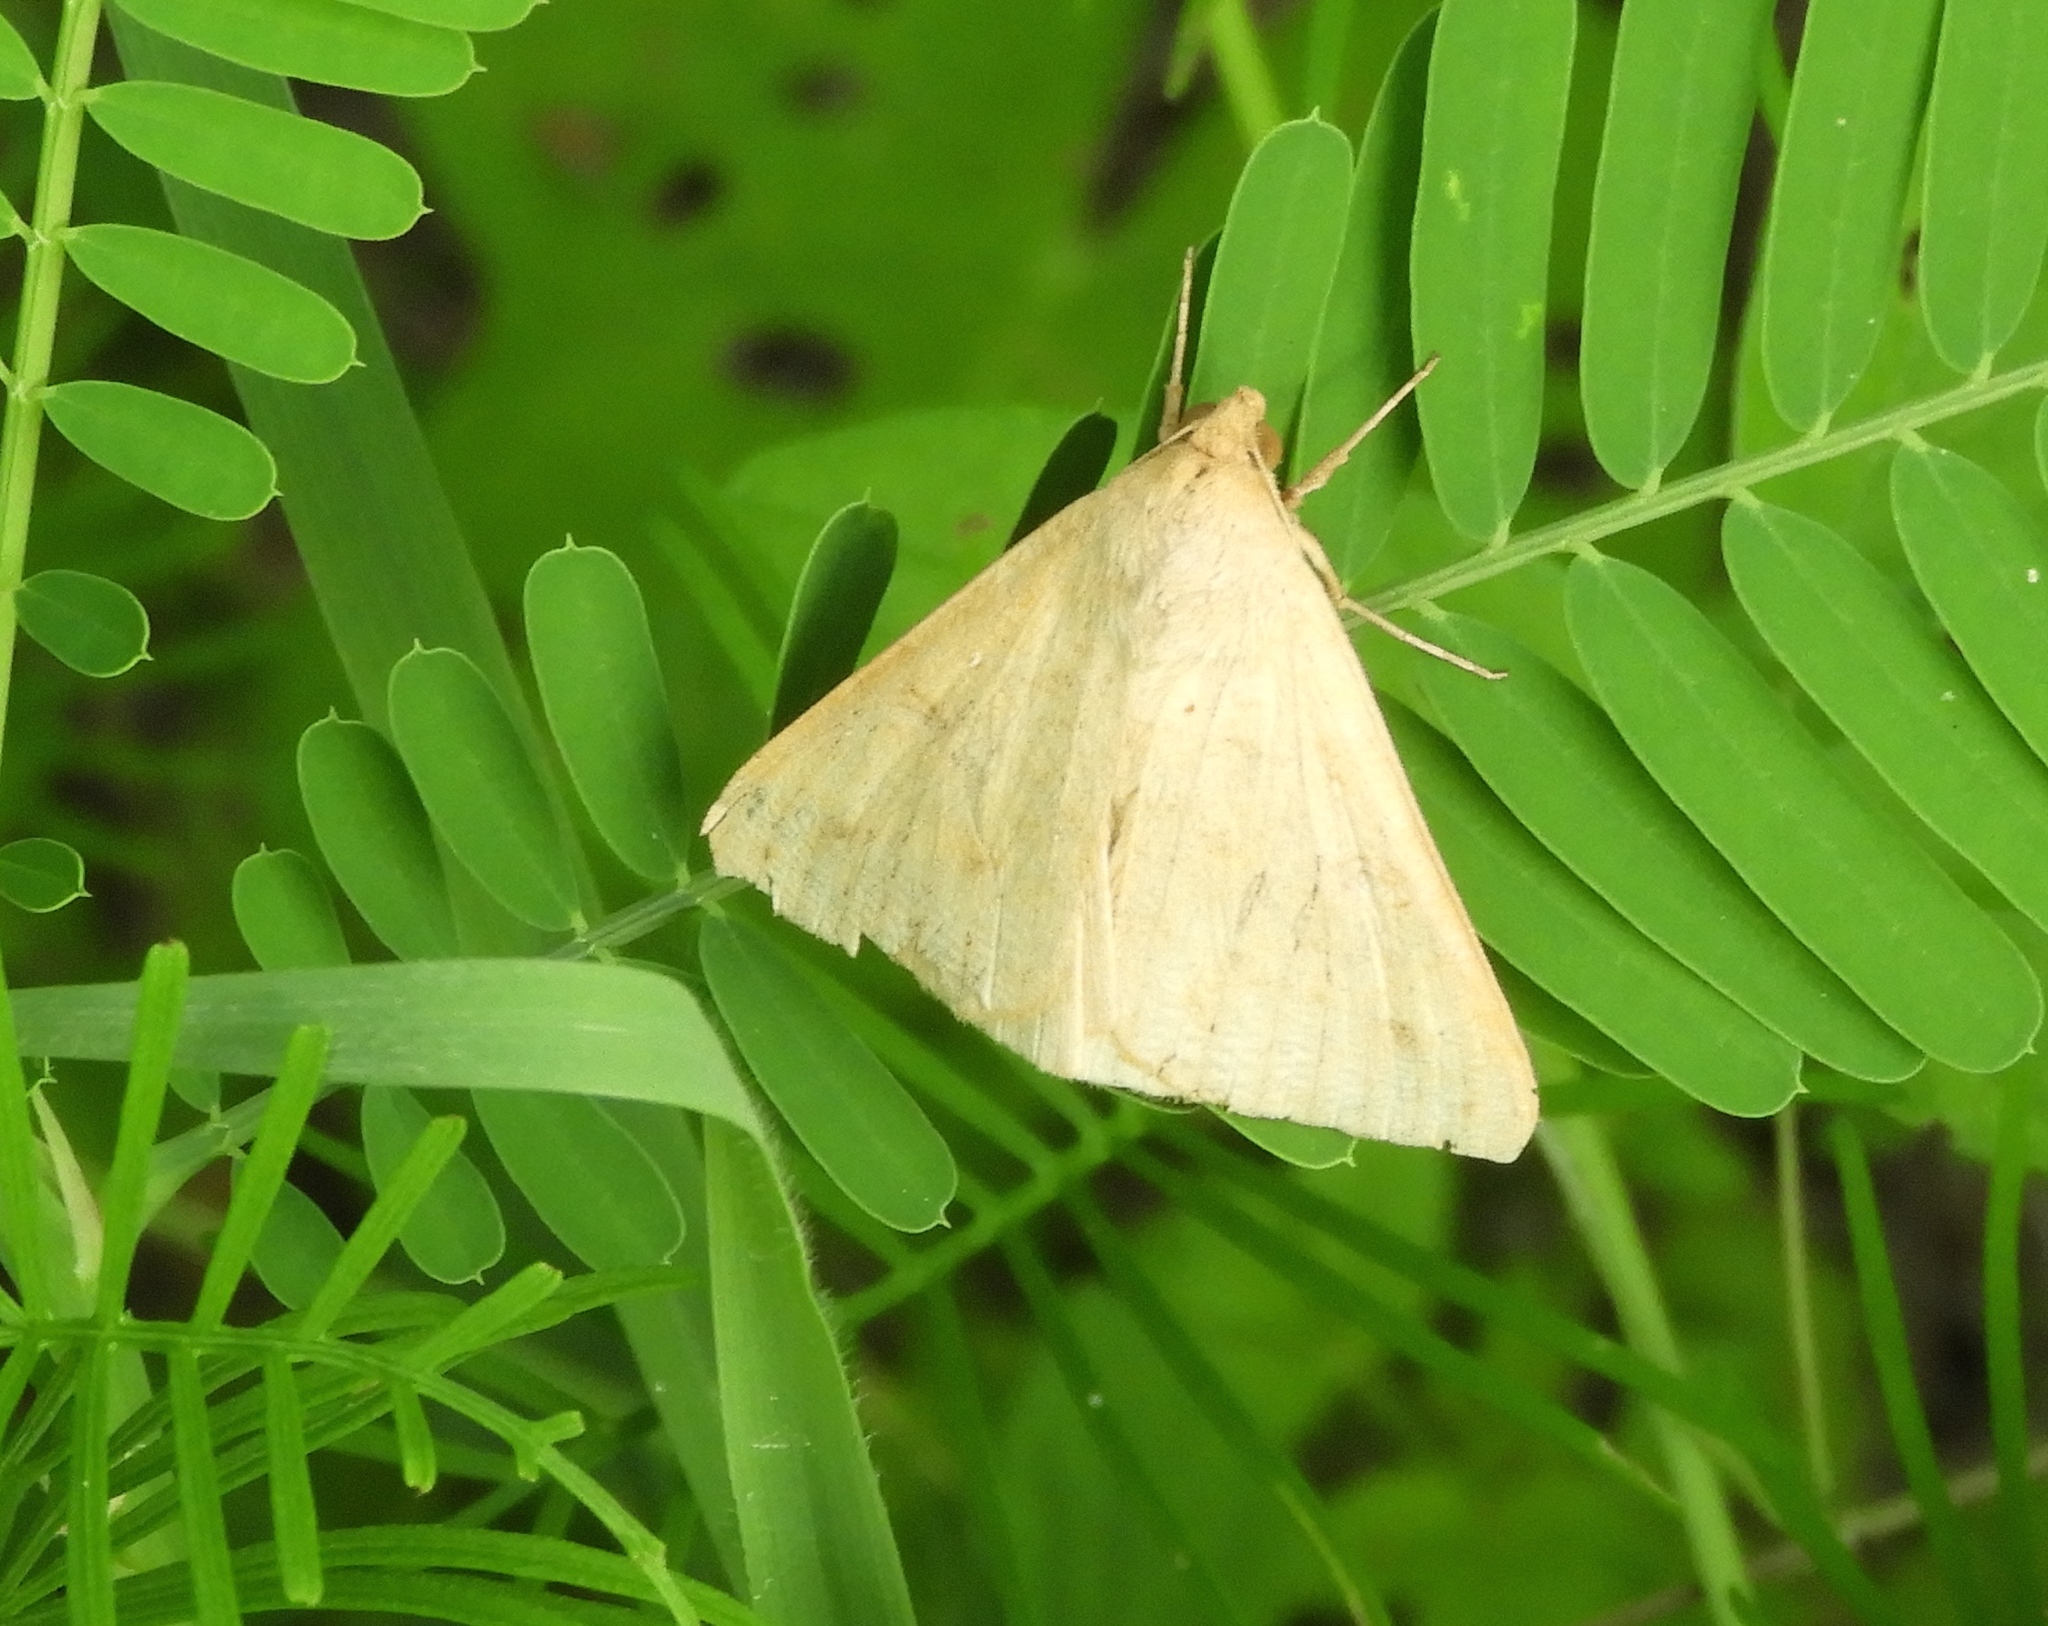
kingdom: Animalia
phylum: Arthropoda
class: Insecta
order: Lepidoptera
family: Erebidae
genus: Mocis
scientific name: Mocis
